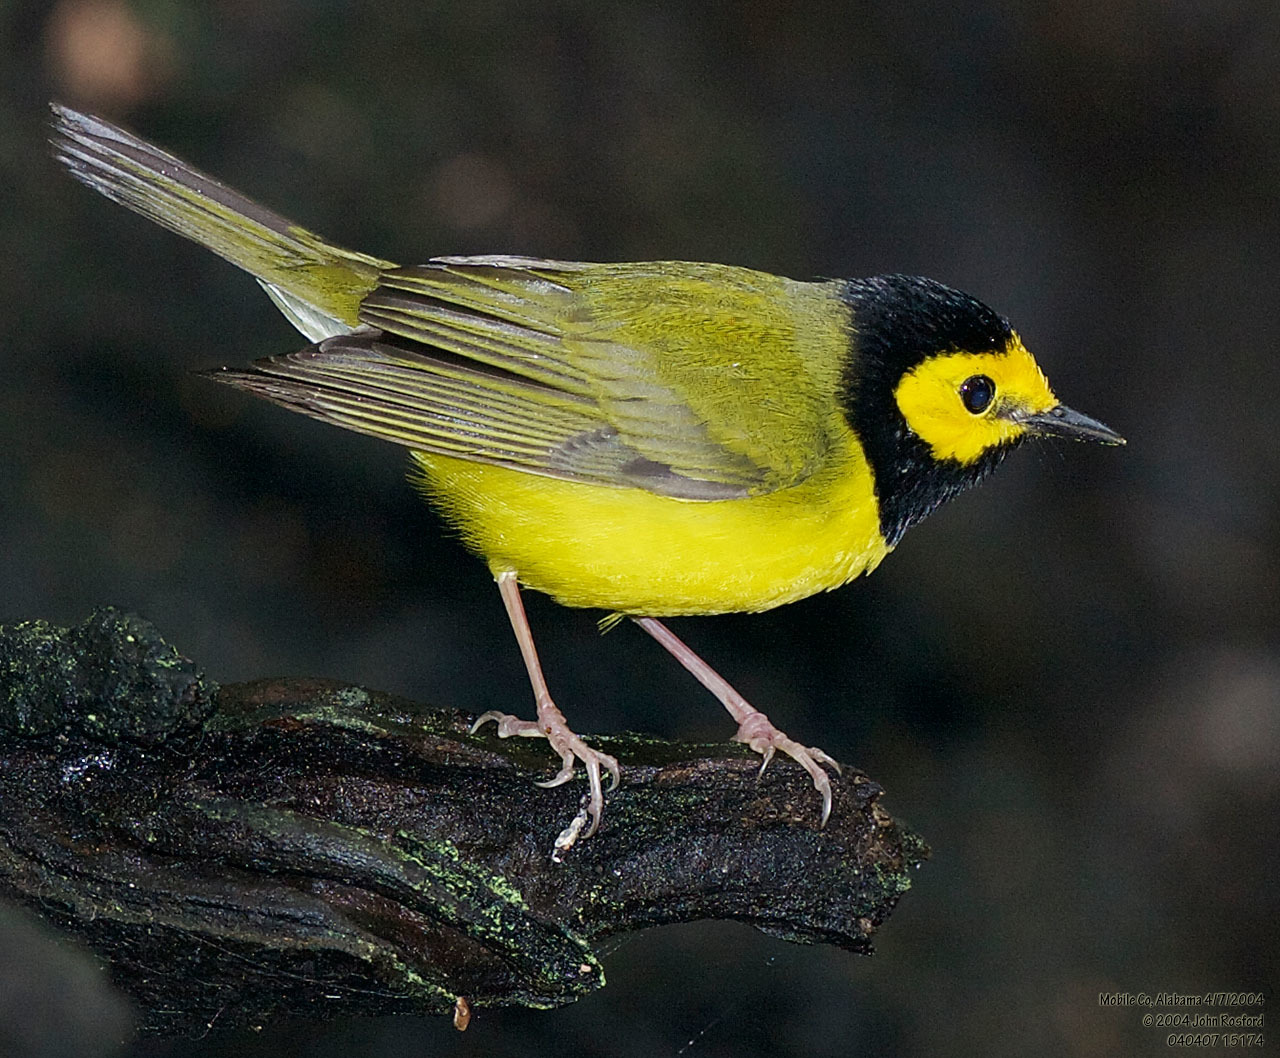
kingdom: Animalia
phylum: Chordata
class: Aves
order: Passeriformes
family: Parulidae
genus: Setophaga
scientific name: Setophaga citrina
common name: Hooded warbler
